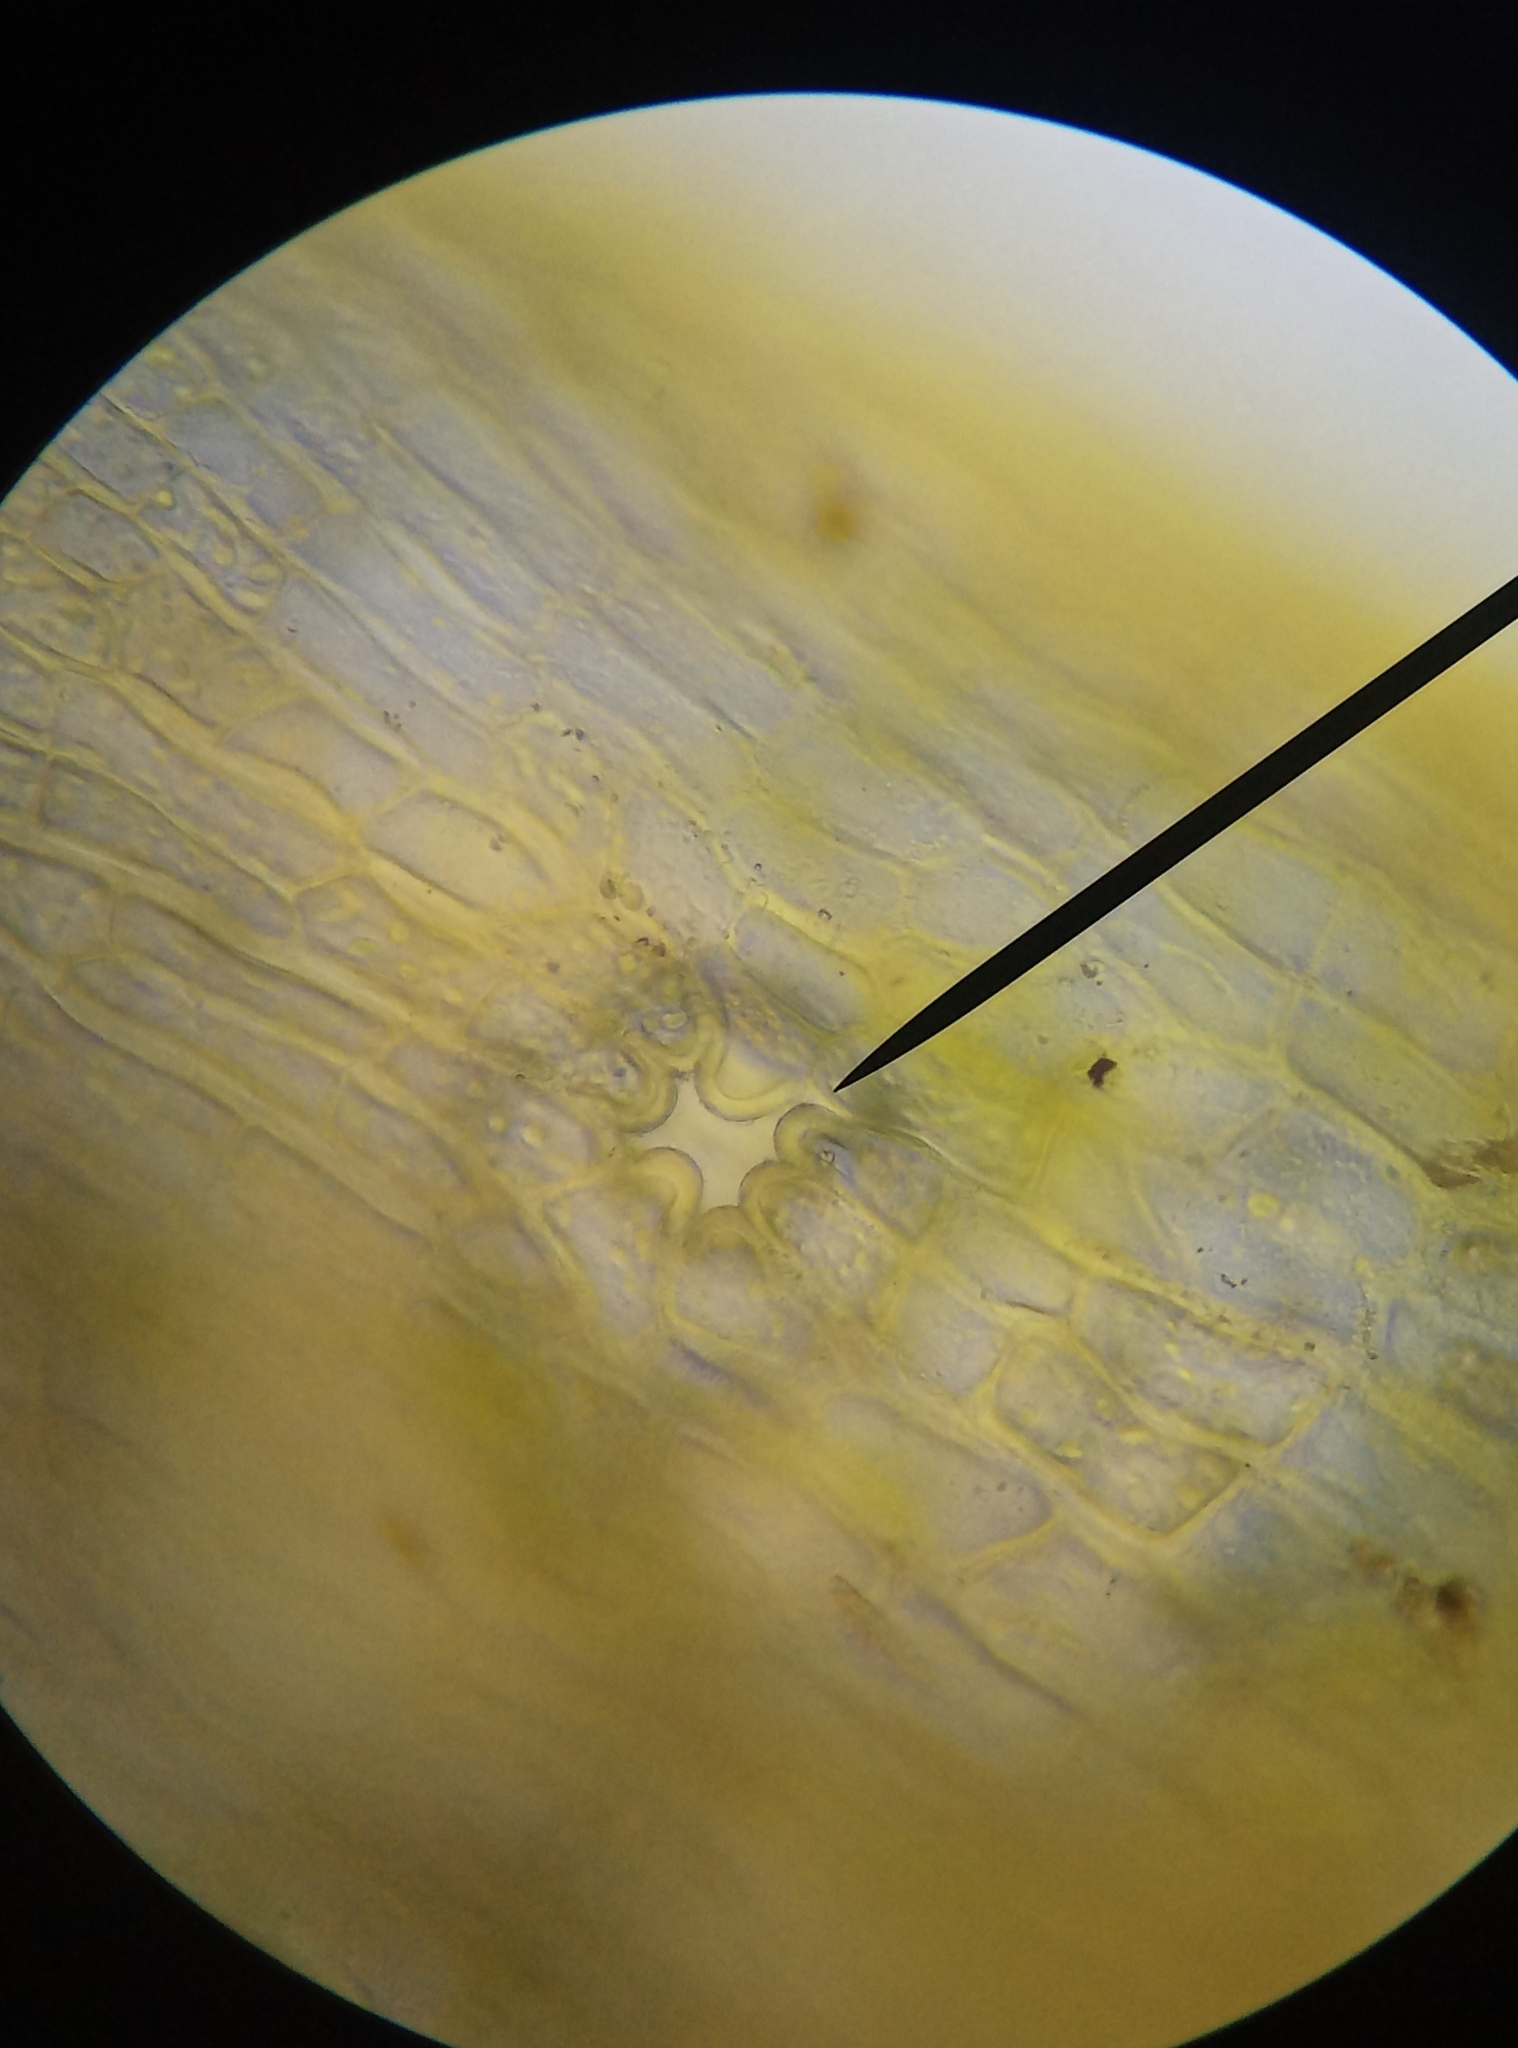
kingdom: Plantae
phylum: Bryophyta
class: Bryopsida
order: Orthotrichales
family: Orthotrichaceae
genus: Orthotrichum
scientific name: Orthotrichum diaphanum
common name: White-tipped bristle-moss
